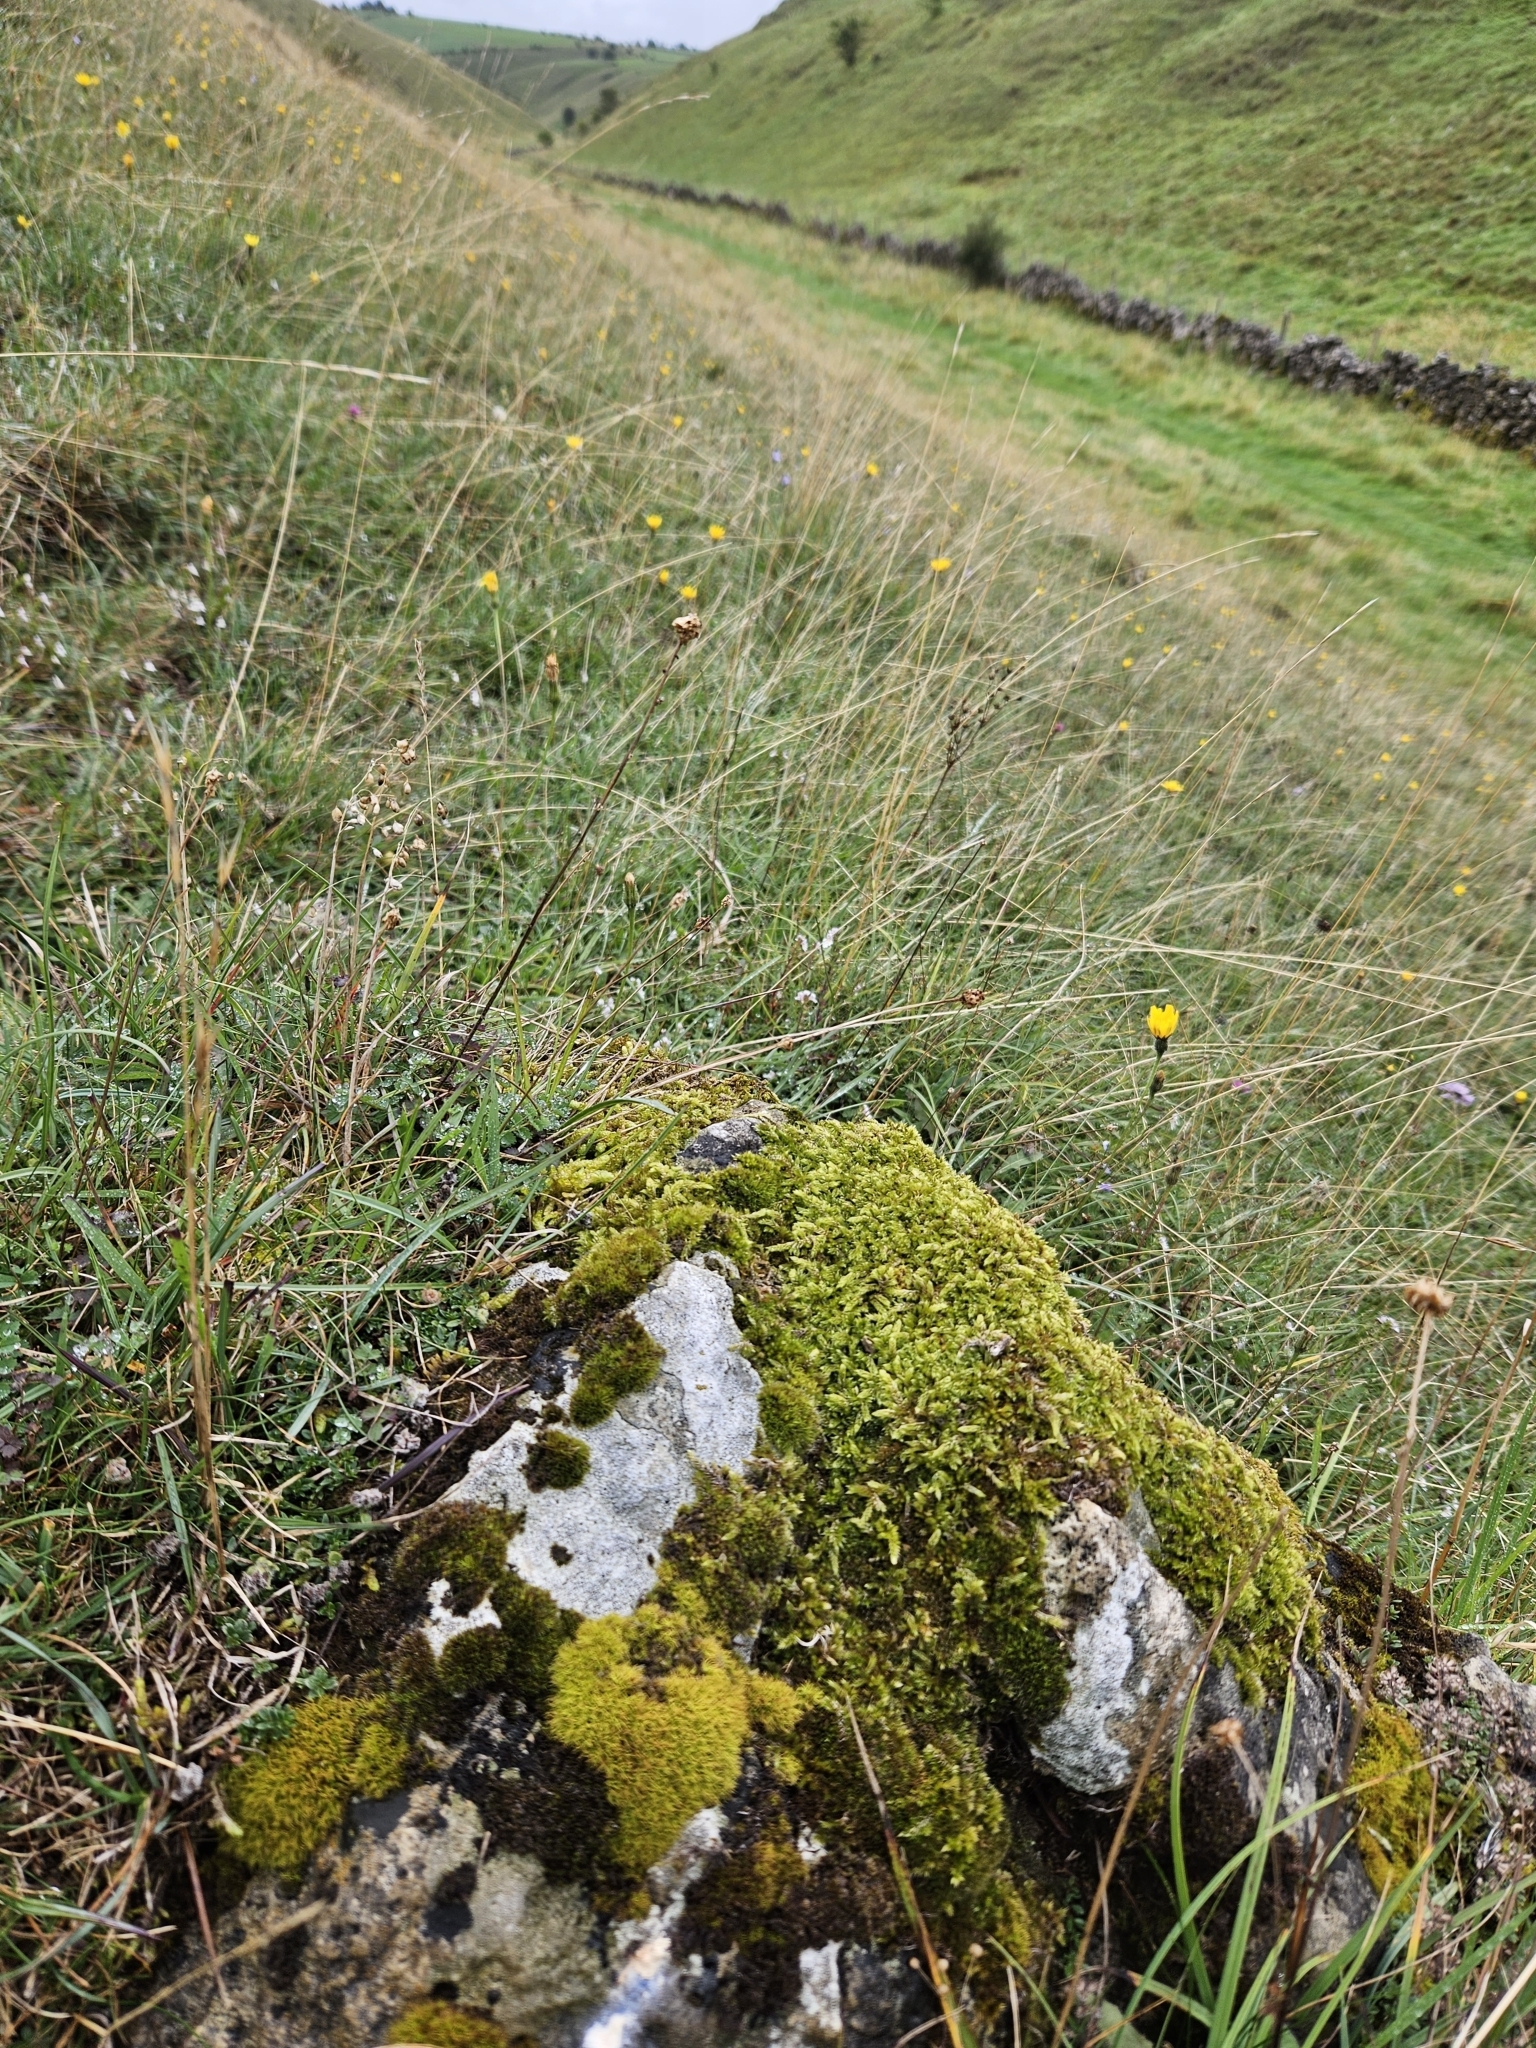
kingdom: Plantae
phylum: Bryophyta
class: Bryopsida
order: Hypnales
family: Hypnaceae
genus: Hypnum
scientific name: Hypnum cupressiforme
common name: Cypress-leaved plait-moss
